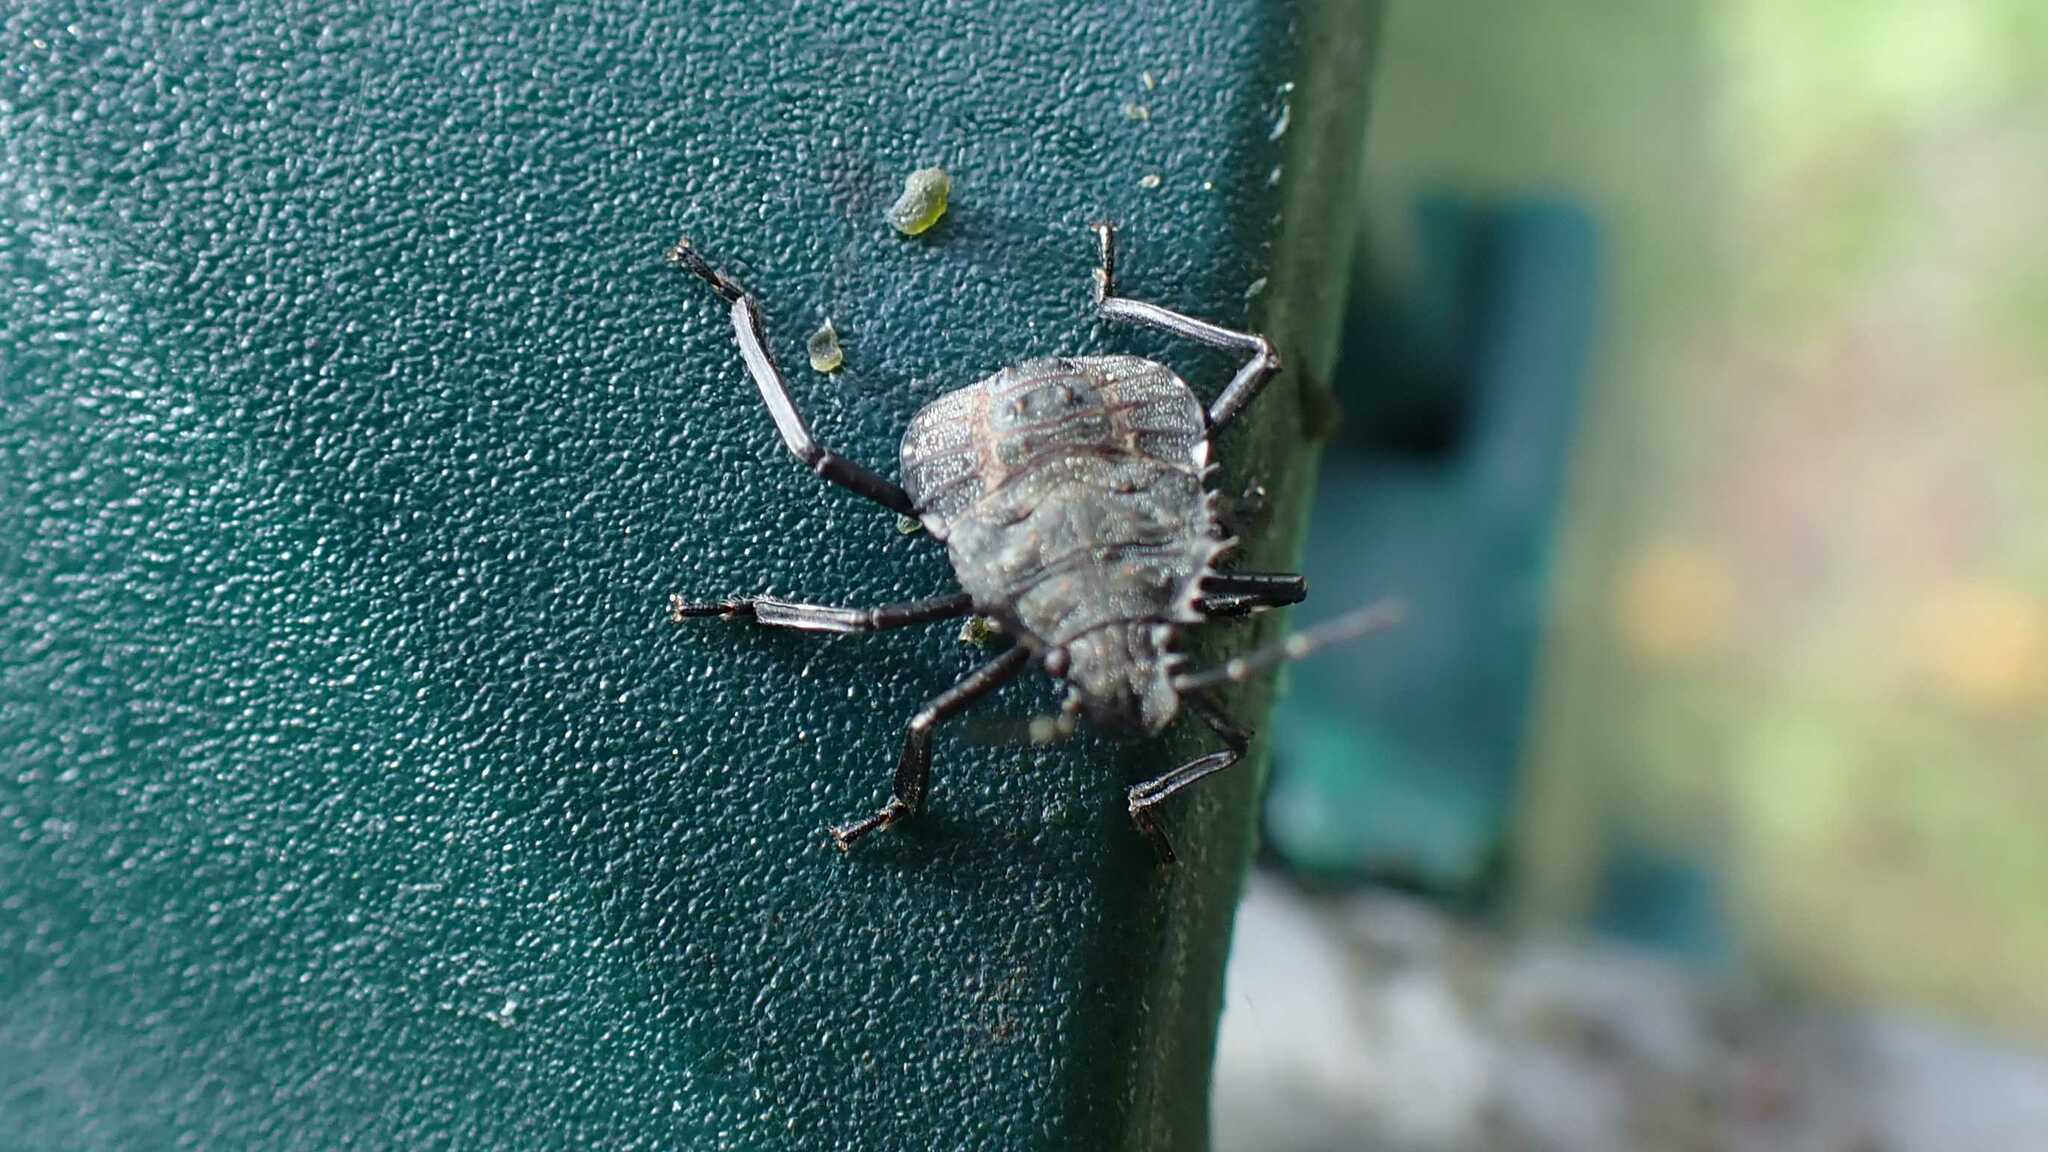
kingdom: Animalia
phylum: Arthropoda
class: Insecta
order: Hemiptera
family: Pentatomidae
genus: Halyomorpha
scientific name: Halyomorpha halys
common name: Brown marmorated stink bug
